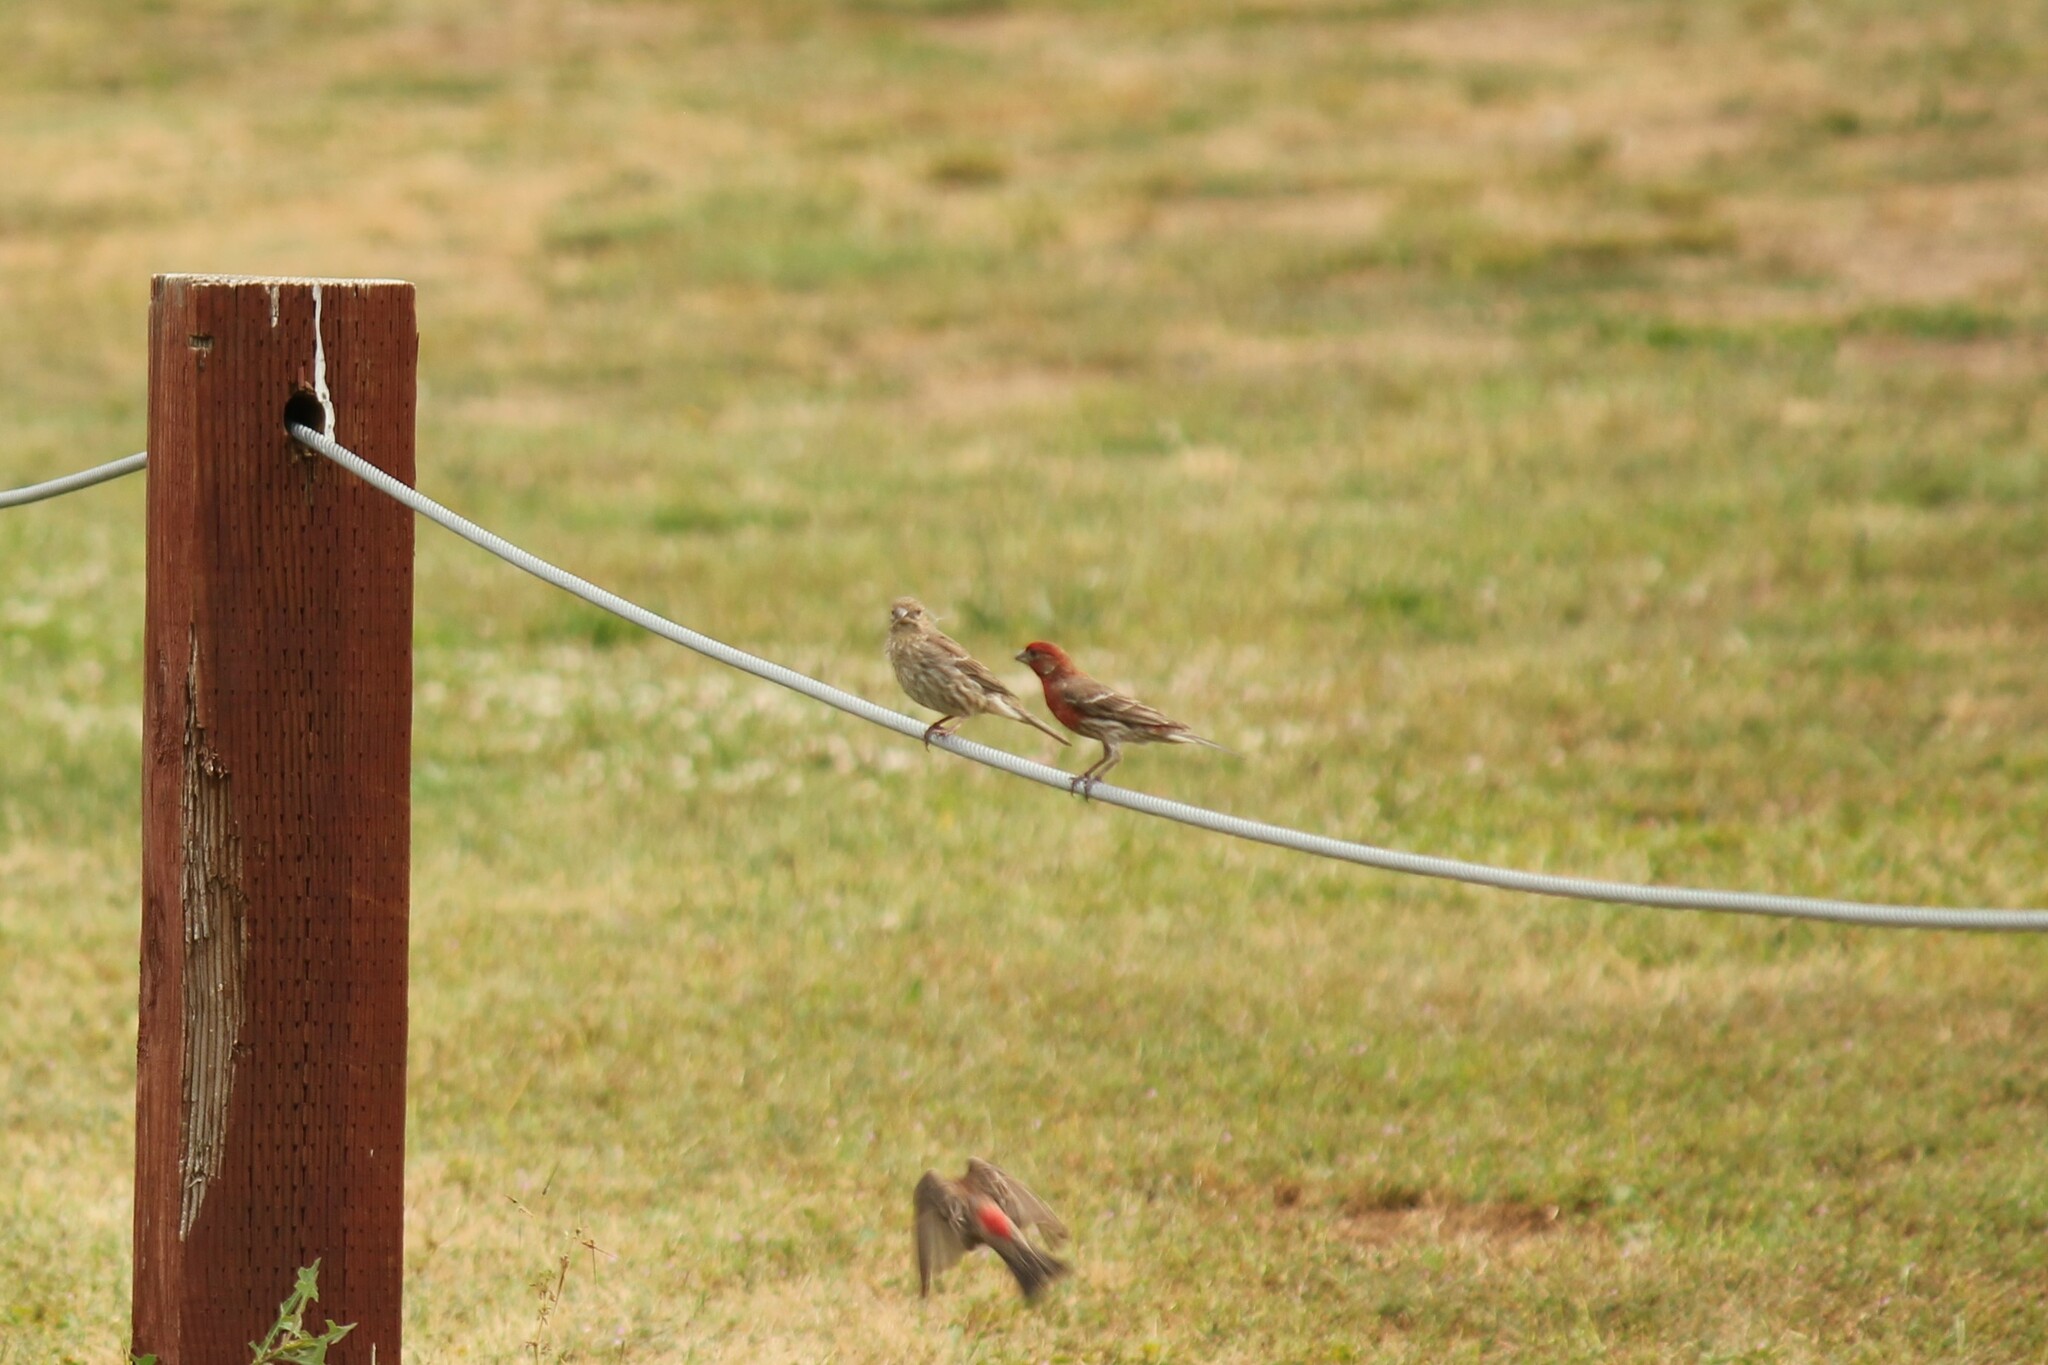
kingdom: Animalia
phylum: Chordata
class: Aves
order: Passeriformes
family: Fringillidae
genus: Haemorhous
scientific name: Haemorhous mexicanus
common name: House finch
